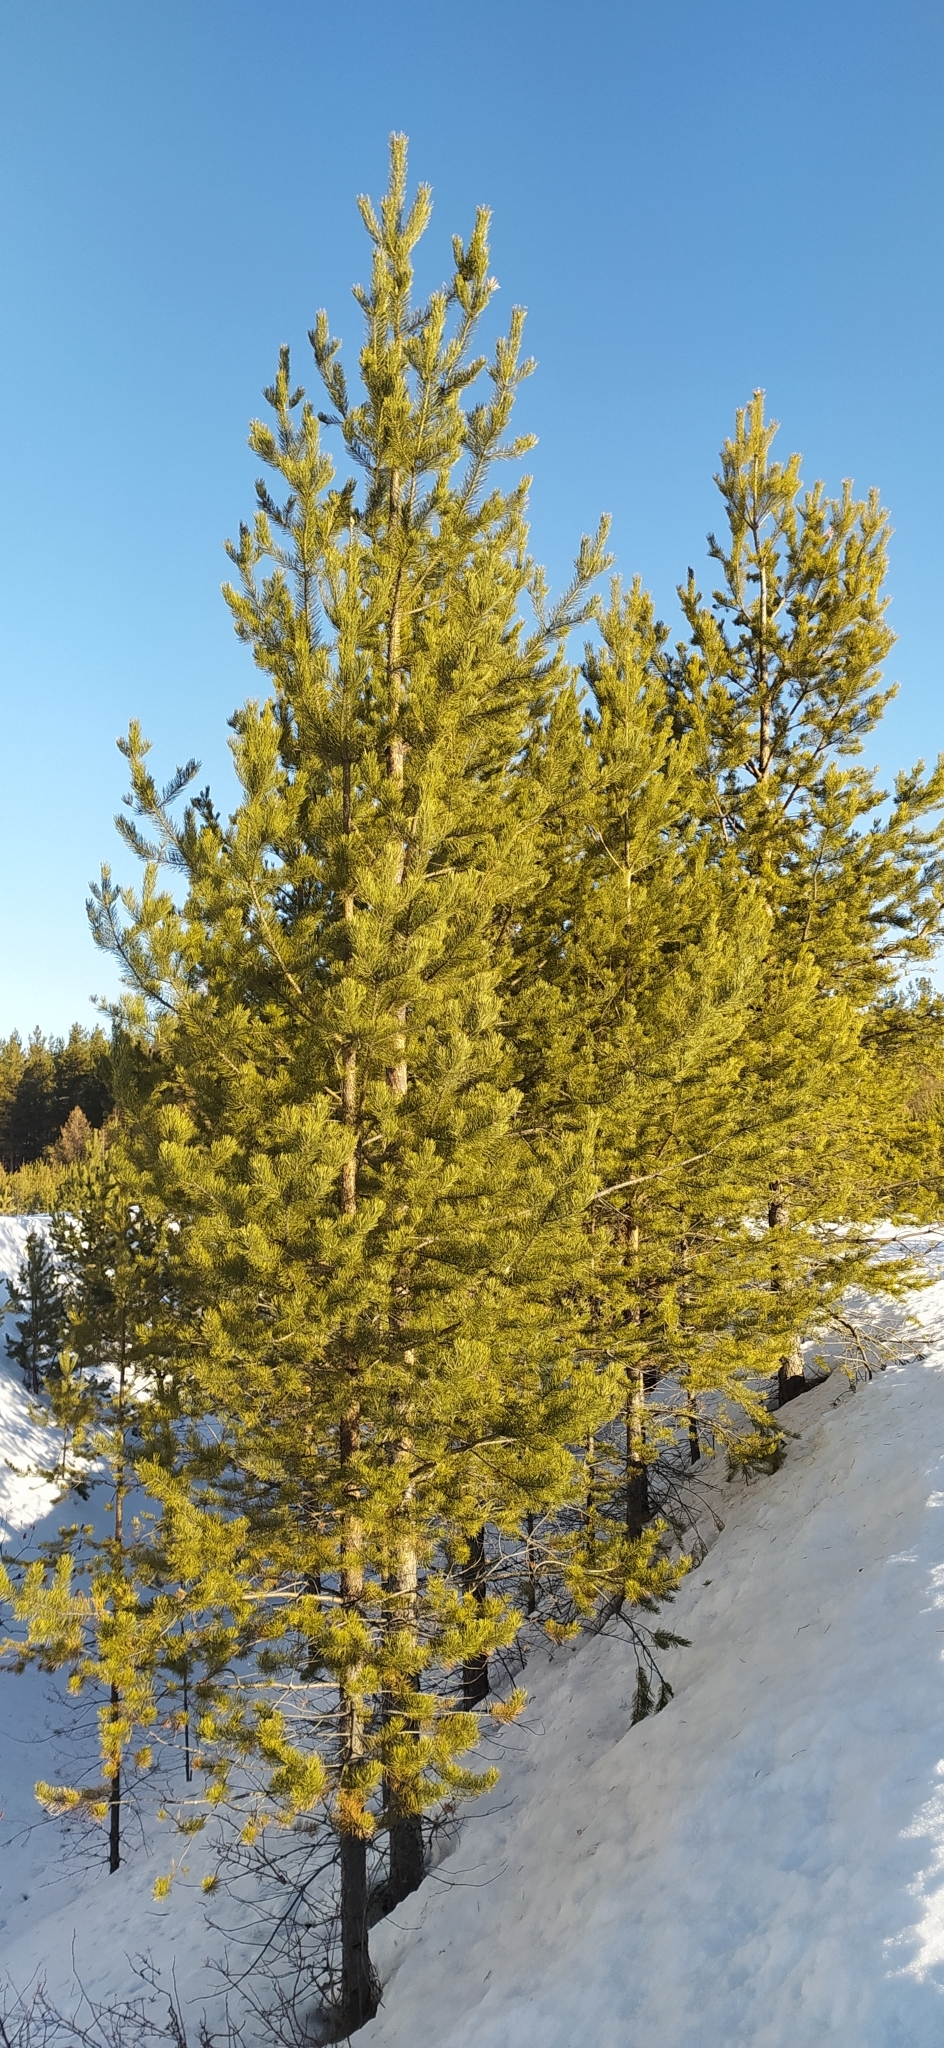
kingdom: Plantae
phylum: Tracheophyta
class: Pinopsida
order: Pinales
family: Pinaceae
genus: Pinus
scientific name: Pinus sylvestris
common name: Scots pine
